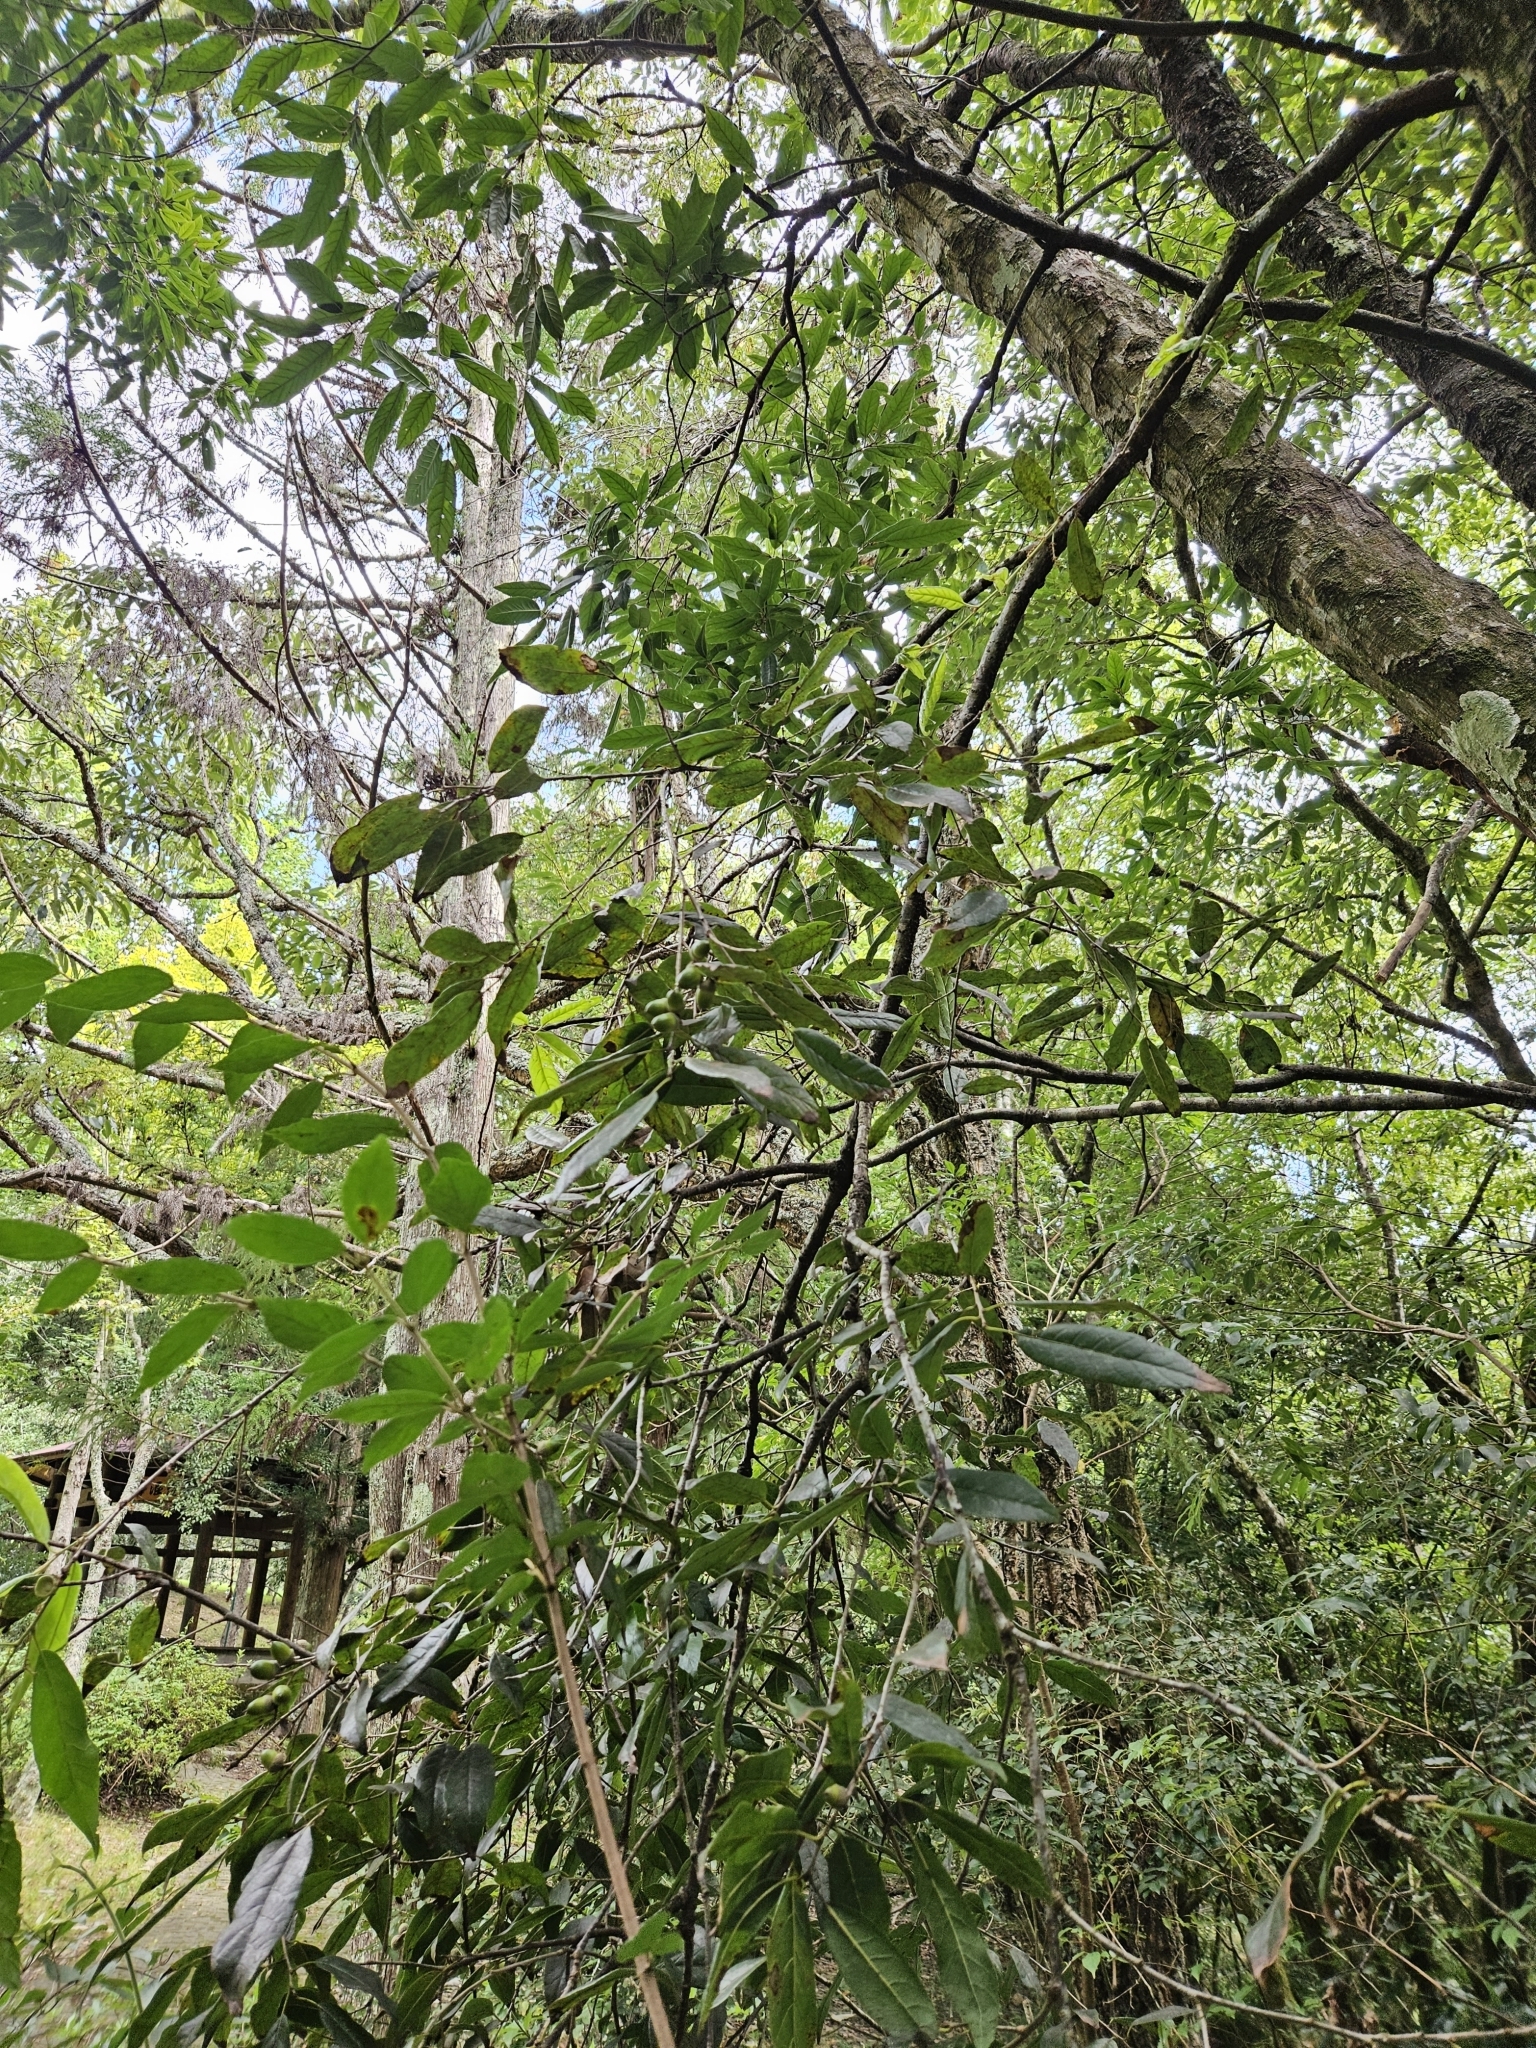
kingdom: Plantae
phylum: Tracheophyta
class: Magnoliopsida
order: Fagales
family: Fagaceae
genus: Quercus
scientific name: Quercus tatakaensis
